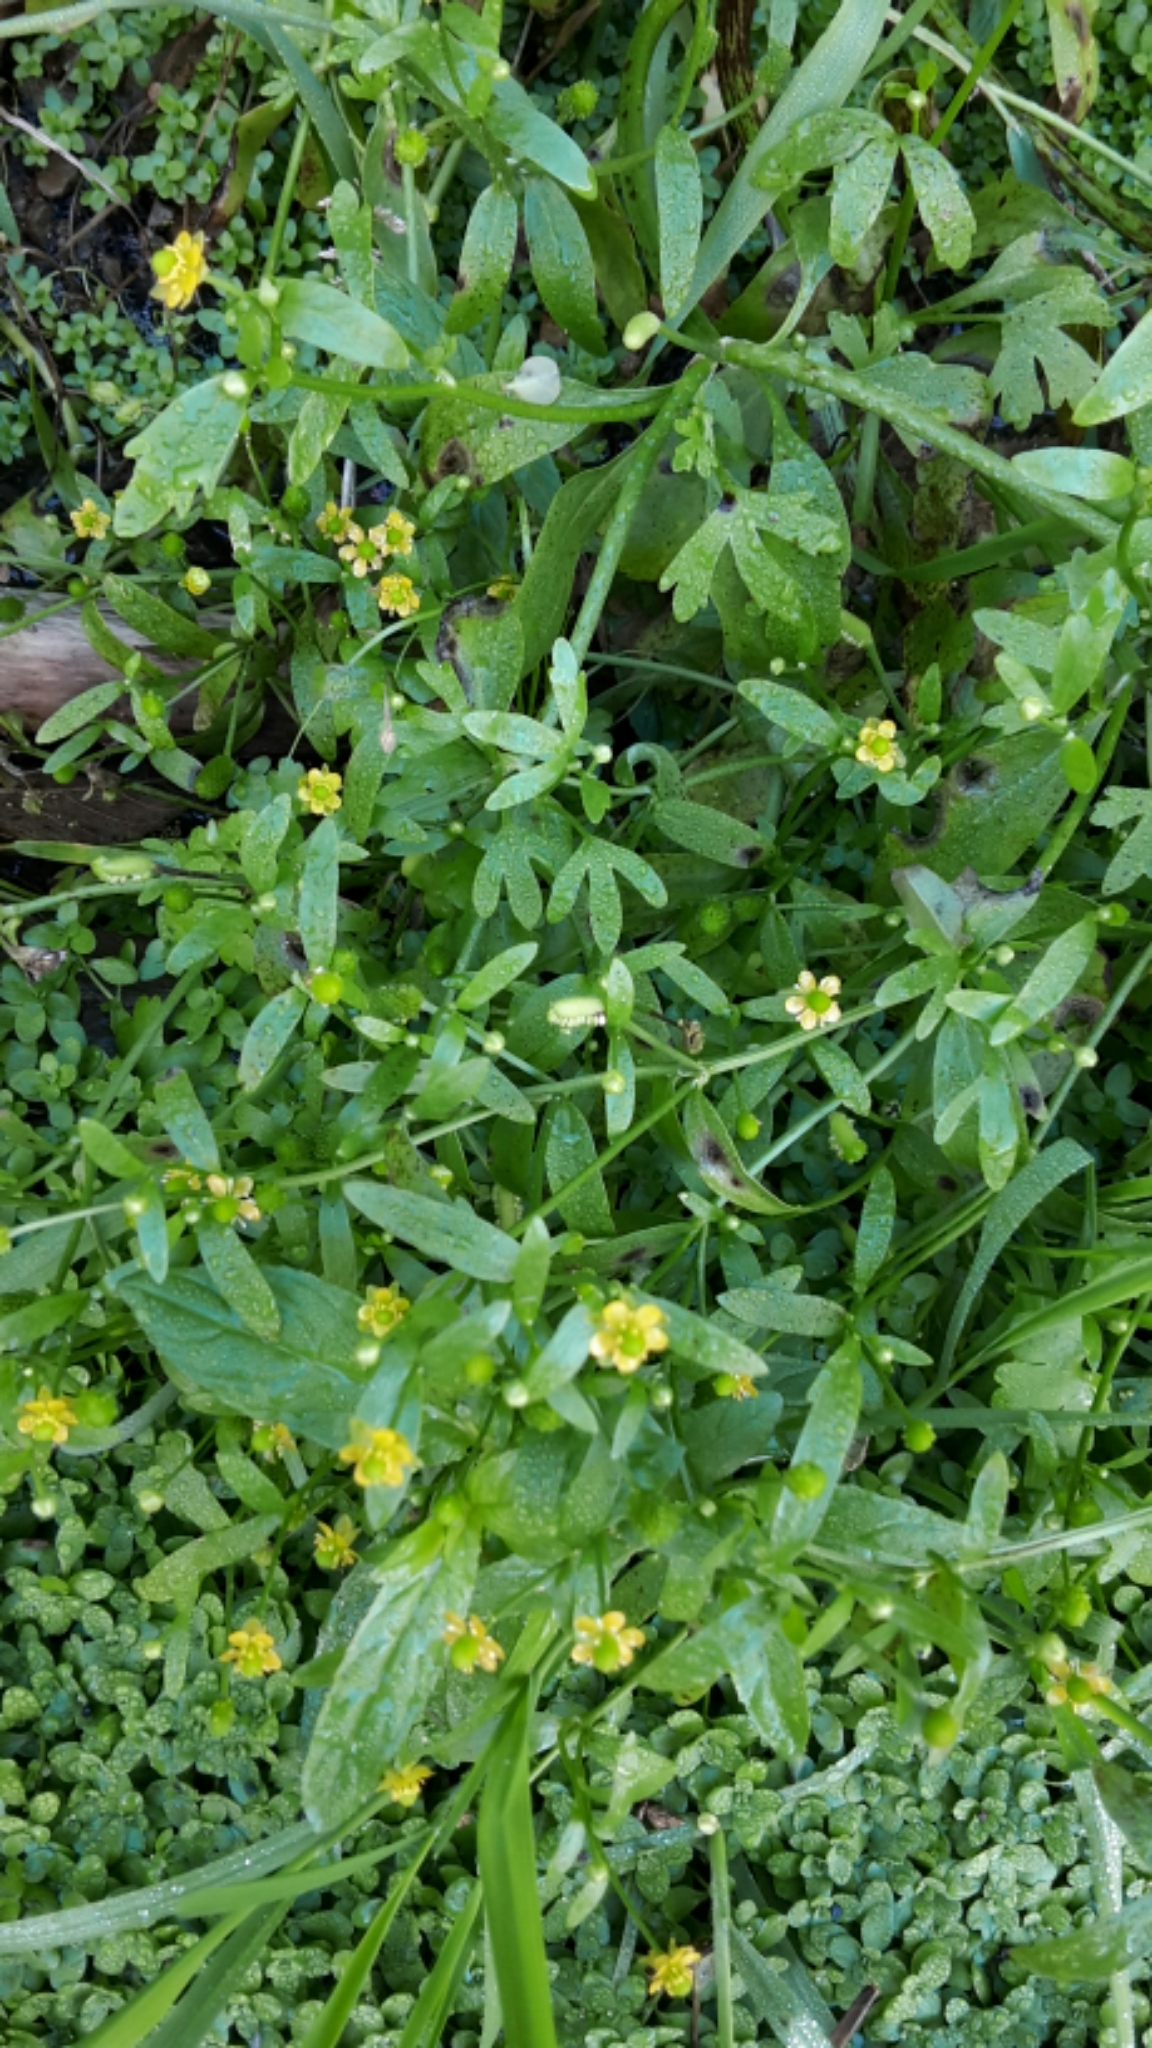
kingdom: Plantae
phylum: Tracheophyta
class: Magnoliopsida
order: Ranunculales
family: Ranunculaceae
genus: Ranunculus
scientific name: Ranunculus sceleratus
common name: Celery-leaved buttercup
